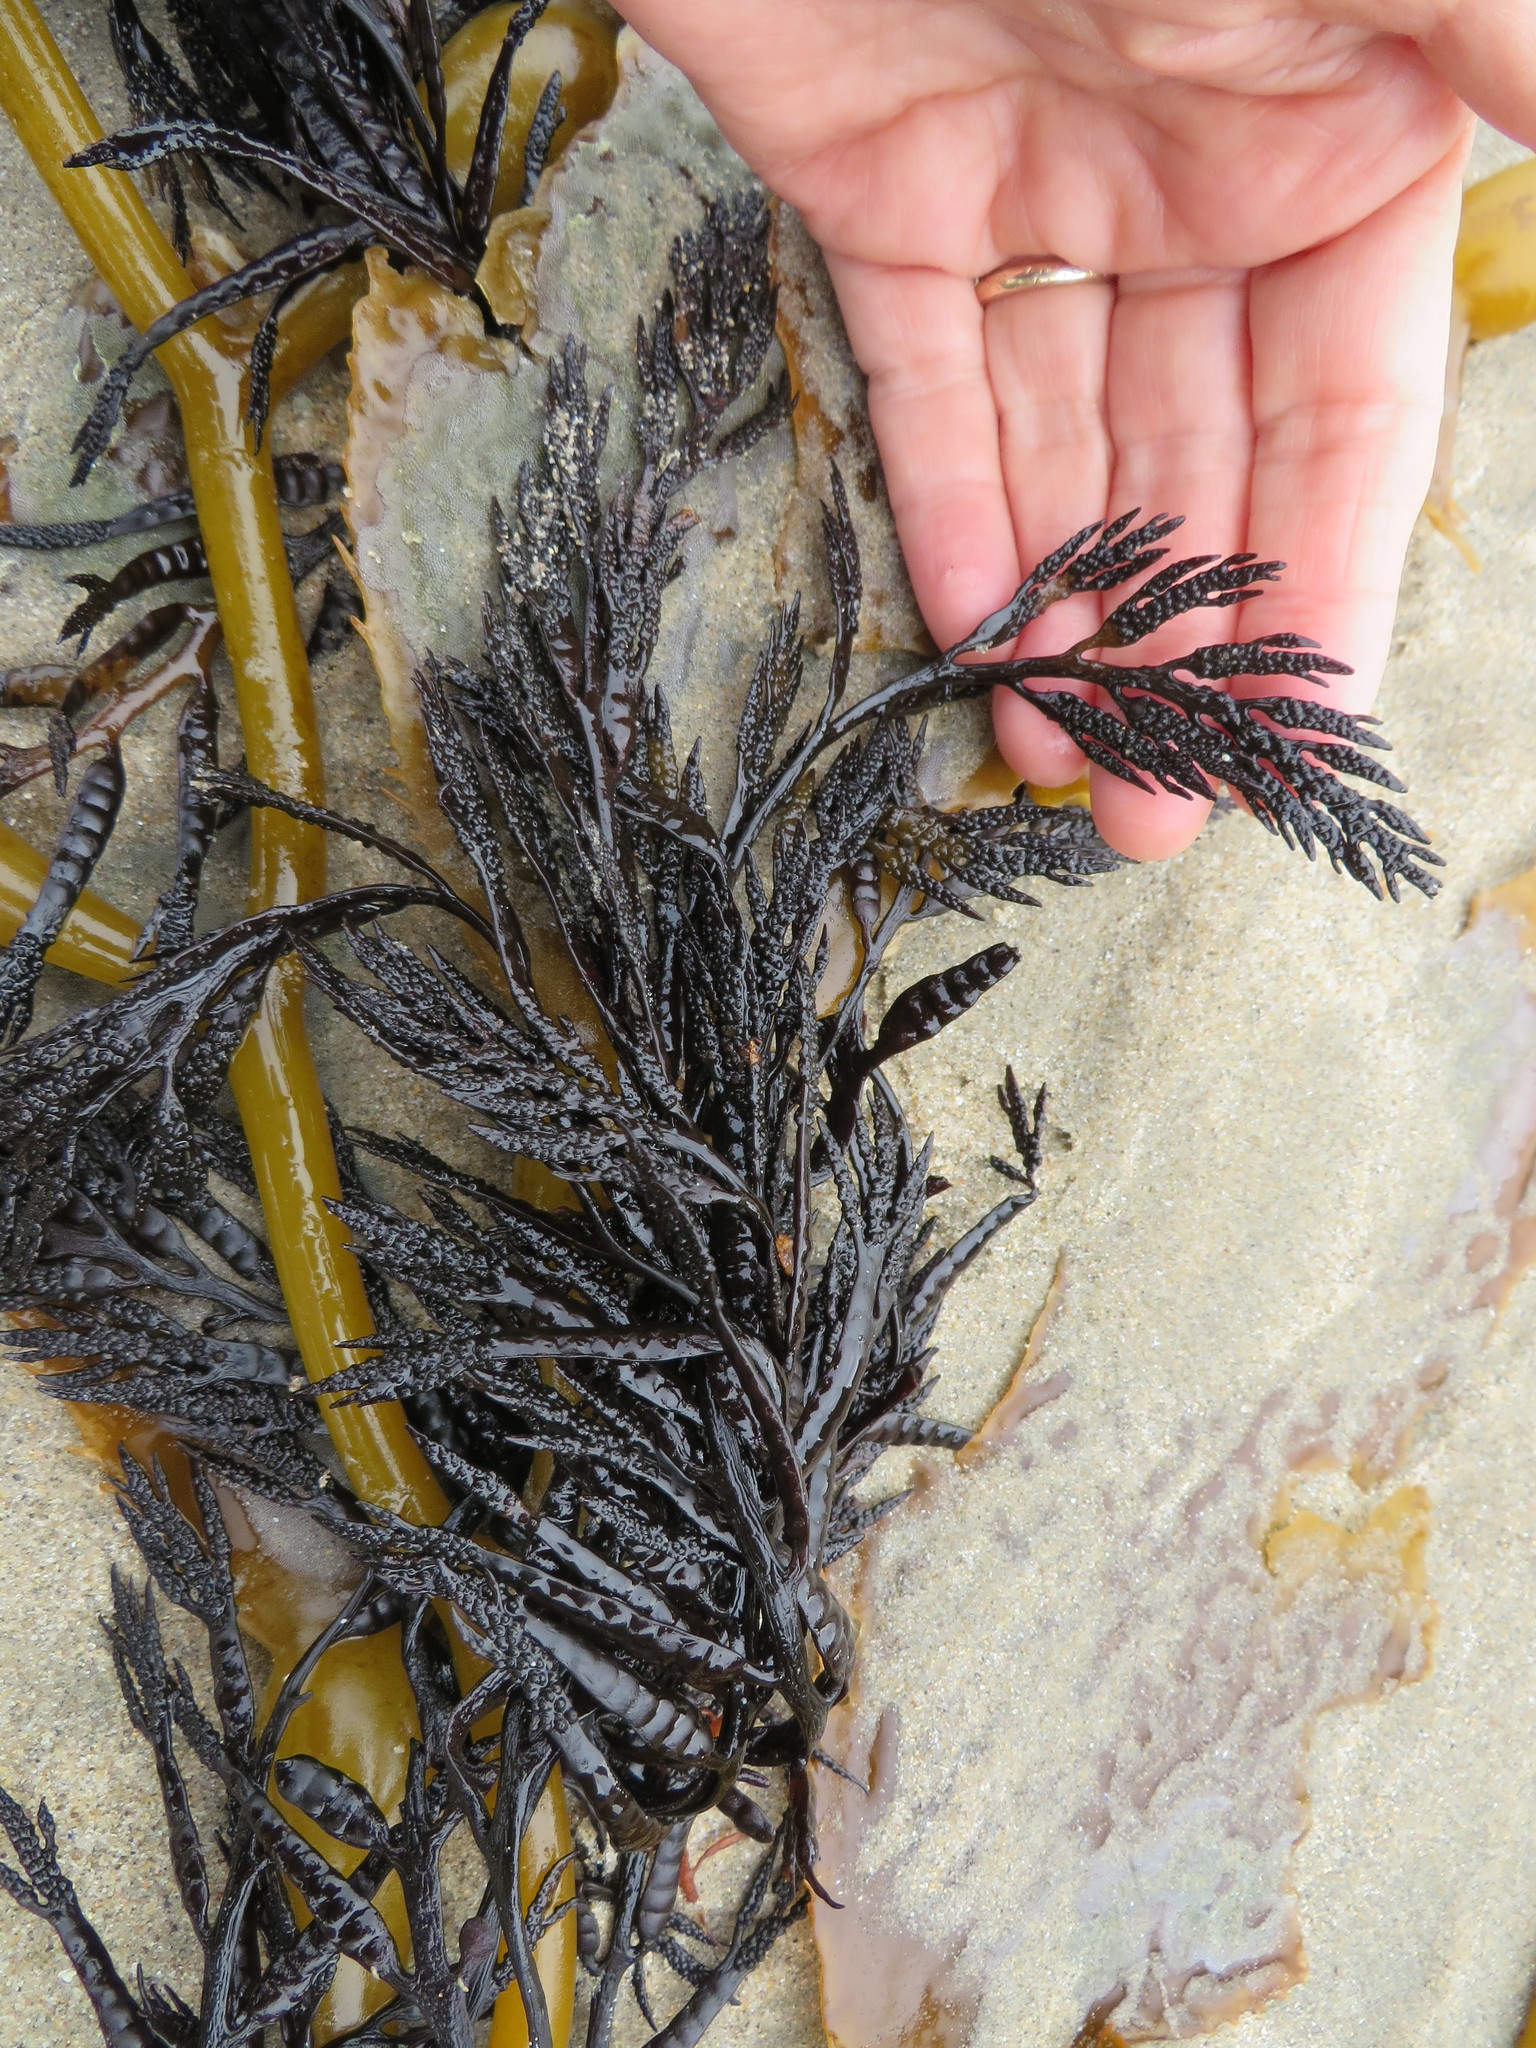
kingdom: Chromista
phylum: Ochrophyta
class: Phaeophyceae
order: Fucales
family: Sargassaceae
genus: Stephanocystis
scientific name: Stephanocystis
